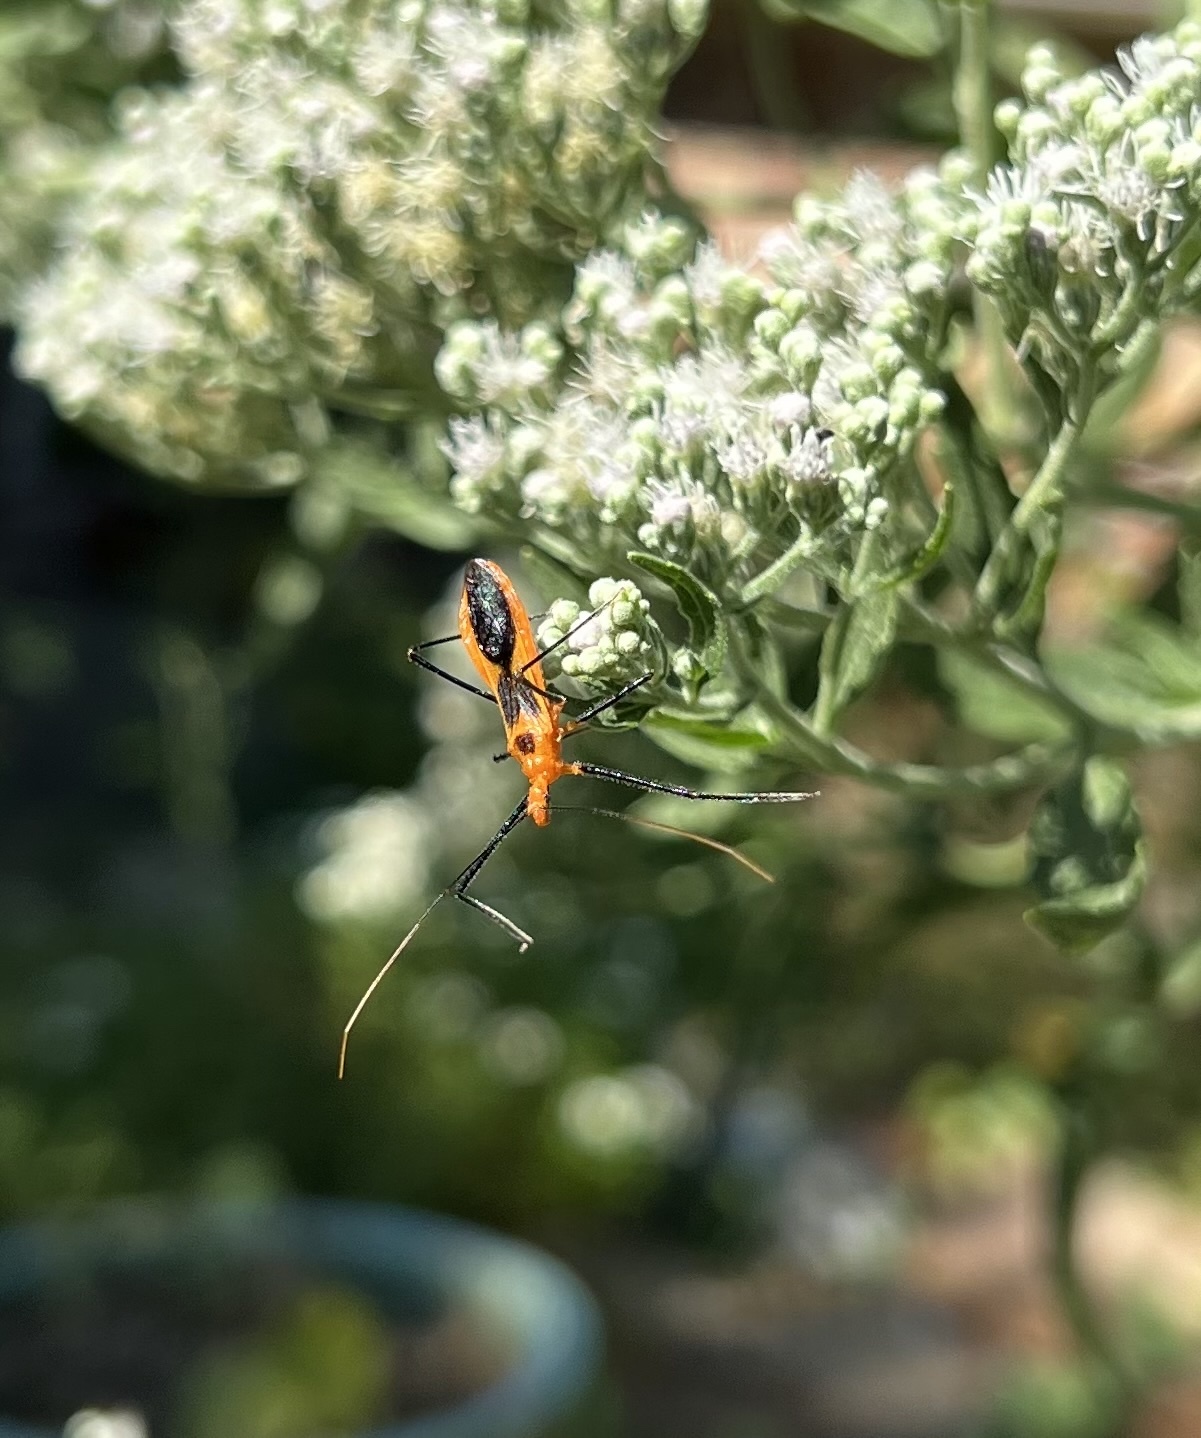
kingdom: Animalia
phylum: Arthropoda
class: Insecta
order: Hemiptera
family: Reduviidae
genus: Zelus
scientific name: Zelus longipes
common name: Milkweed assassin bug
